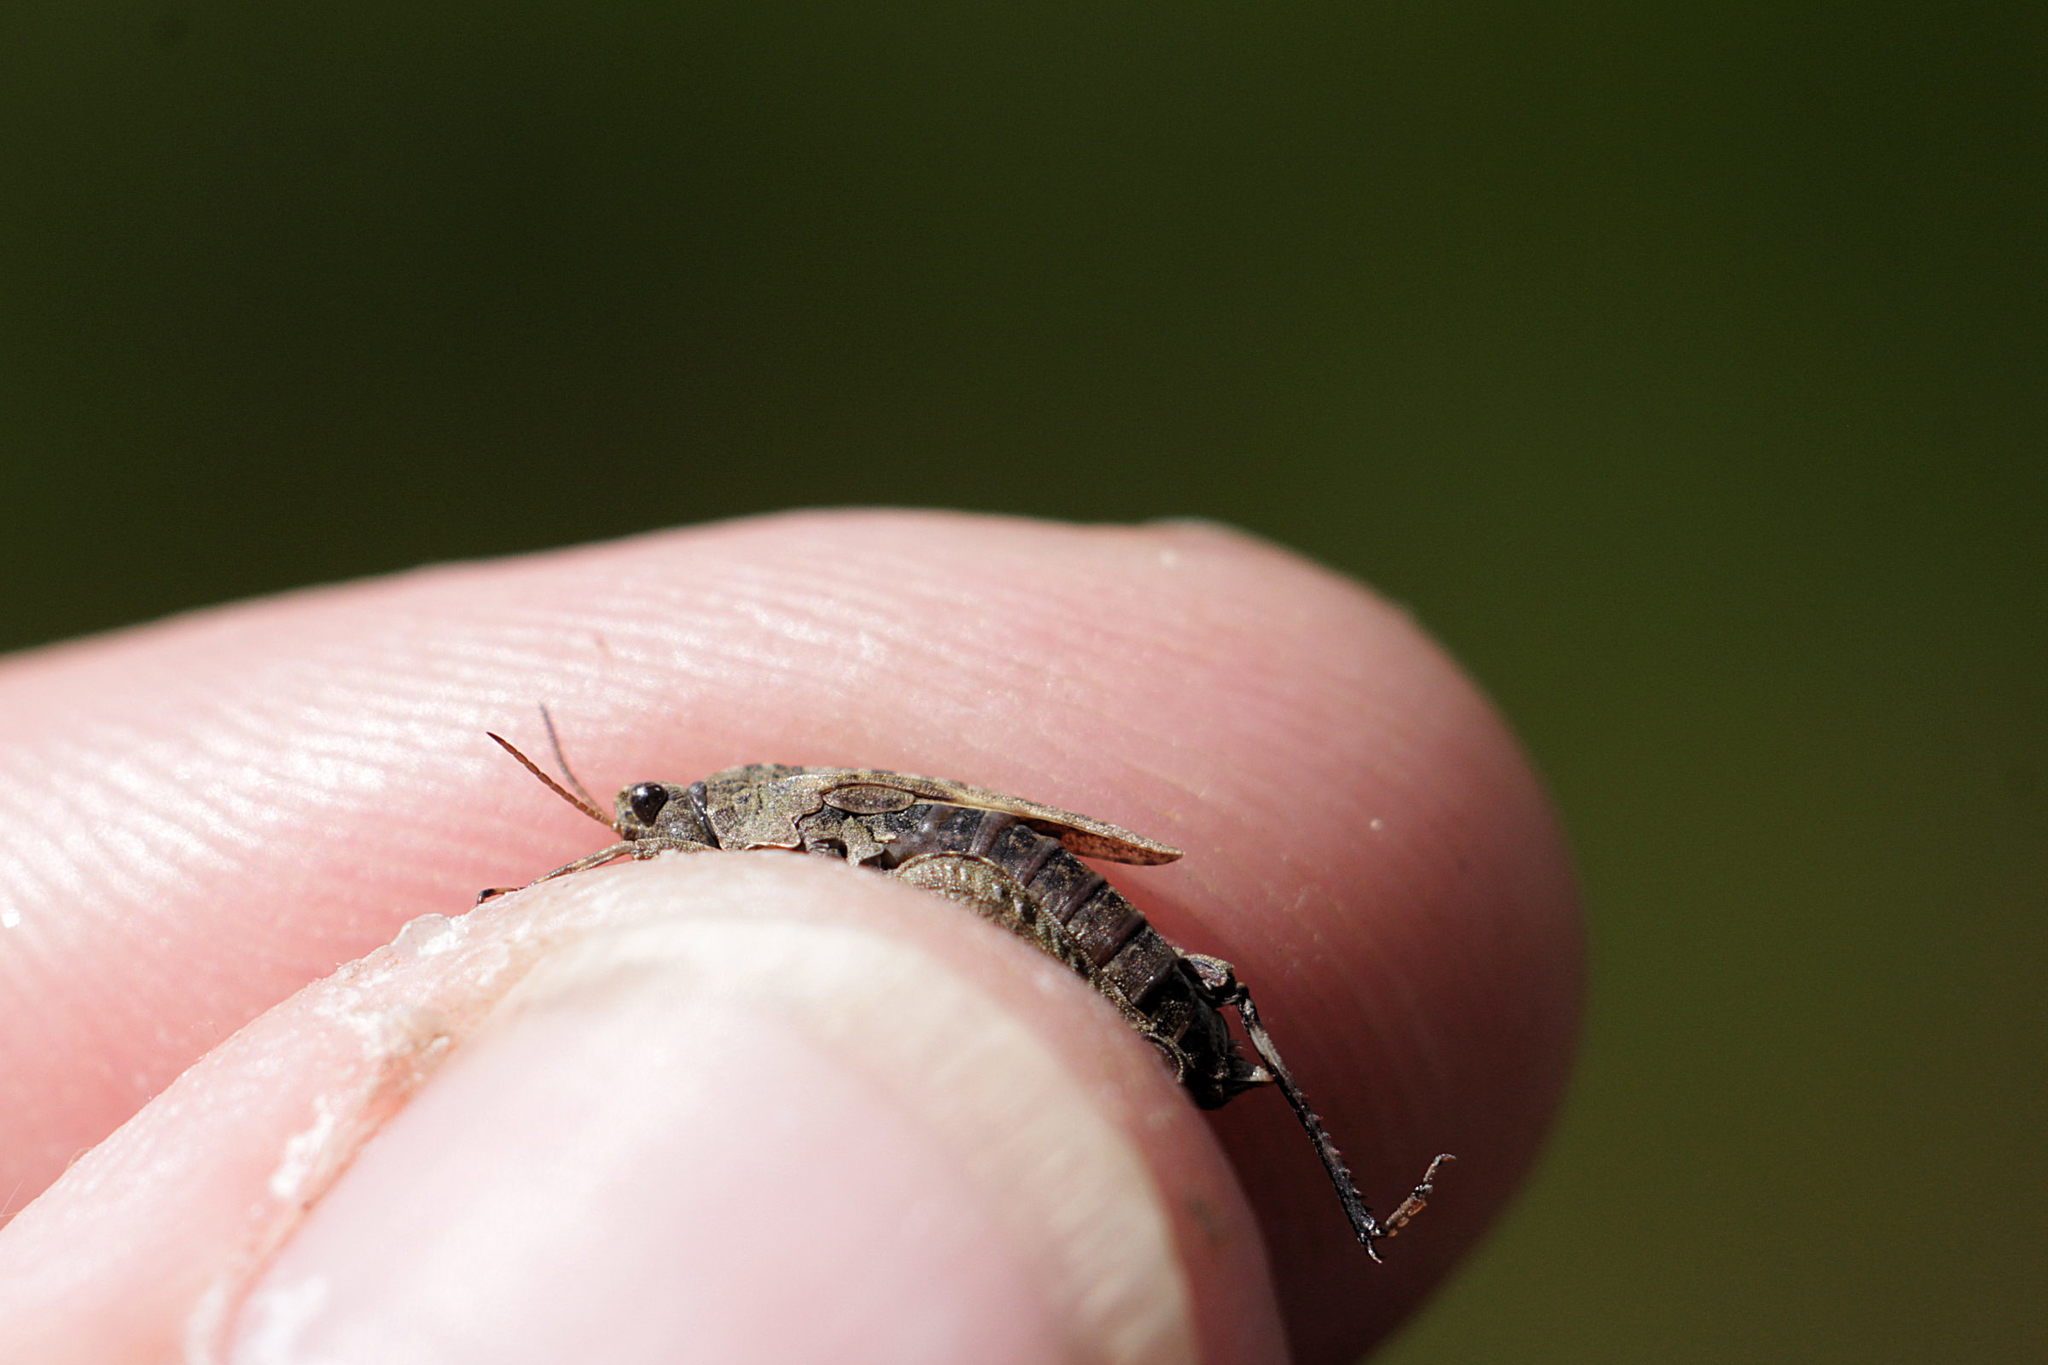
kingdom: Animalia
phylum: Arthropoda
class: Insecta
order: Orthoptera
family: Tetrigidae
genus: Tetrix
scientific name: Tetrix undulata
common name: Common groundhopper
